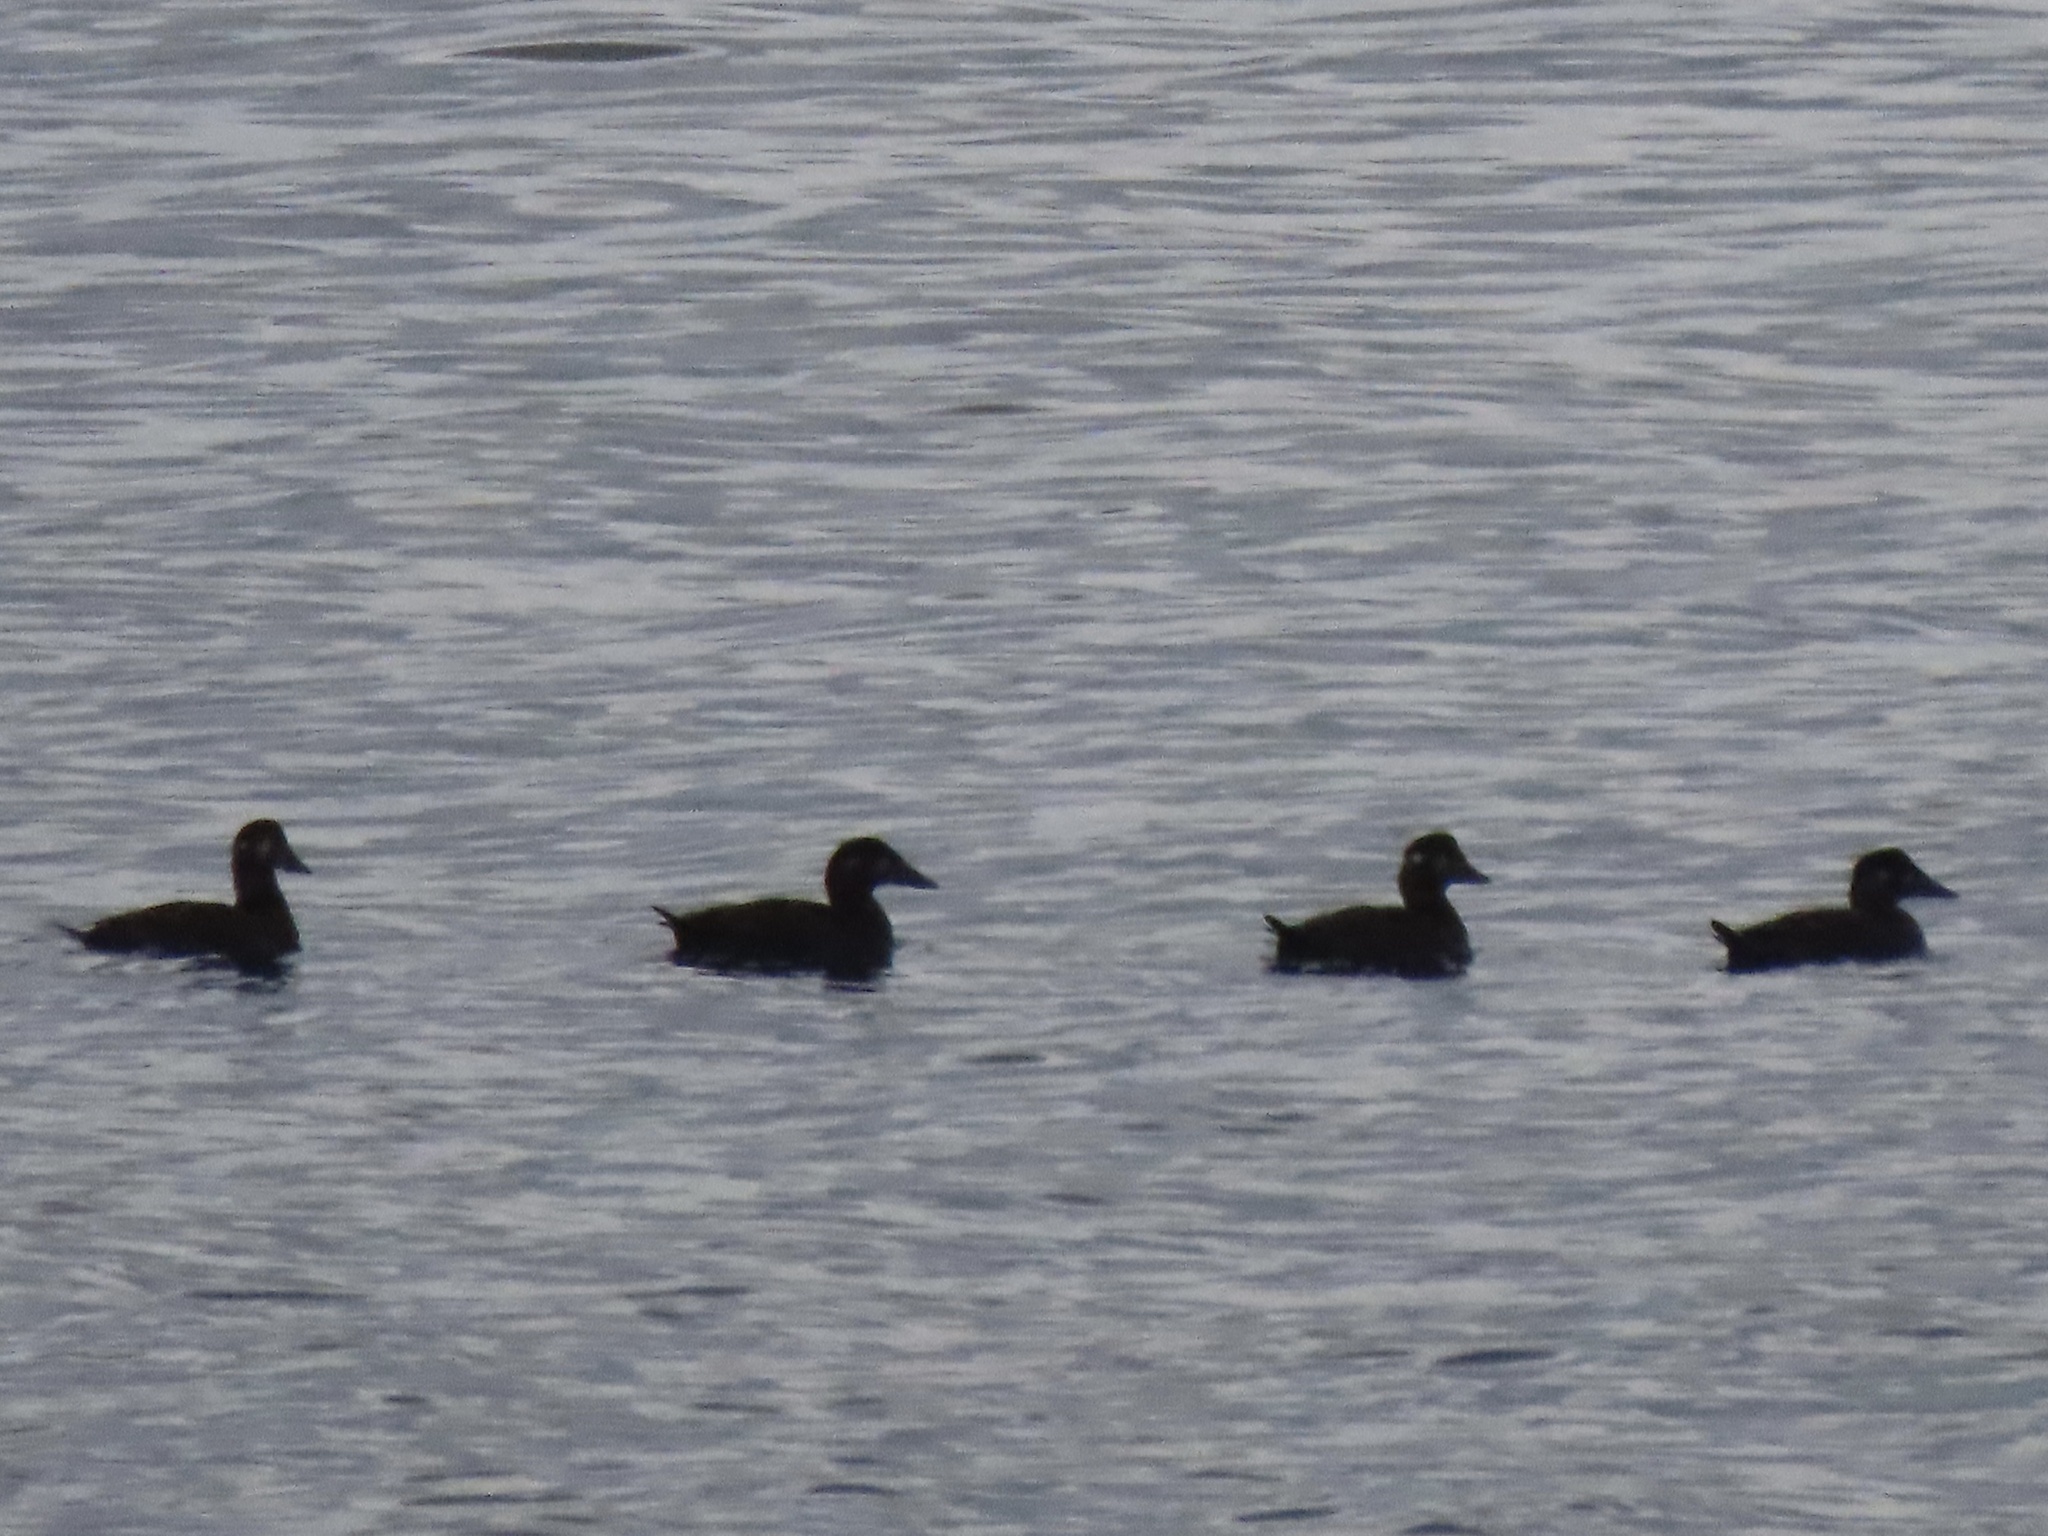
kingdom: Animalia
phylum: Chordata
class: Aves
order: Anseriformes
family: Anatidae
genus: Melanitta
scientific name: Melanitta perspicillata
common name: Surf scoter
